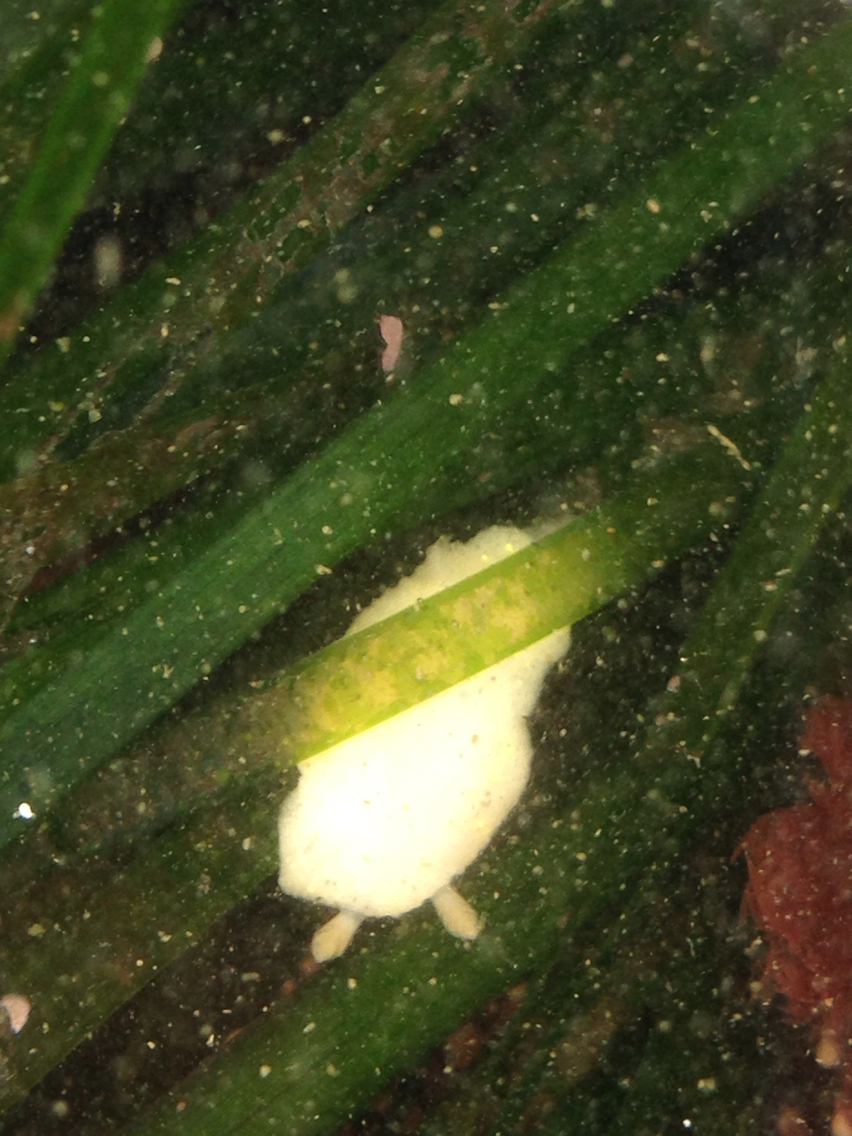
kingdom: Animalia
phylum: Mollusca
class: Gastropoda
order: Nudibranchia
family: Cadlinidae
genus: Cadlina
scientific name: Cadlina modesta
